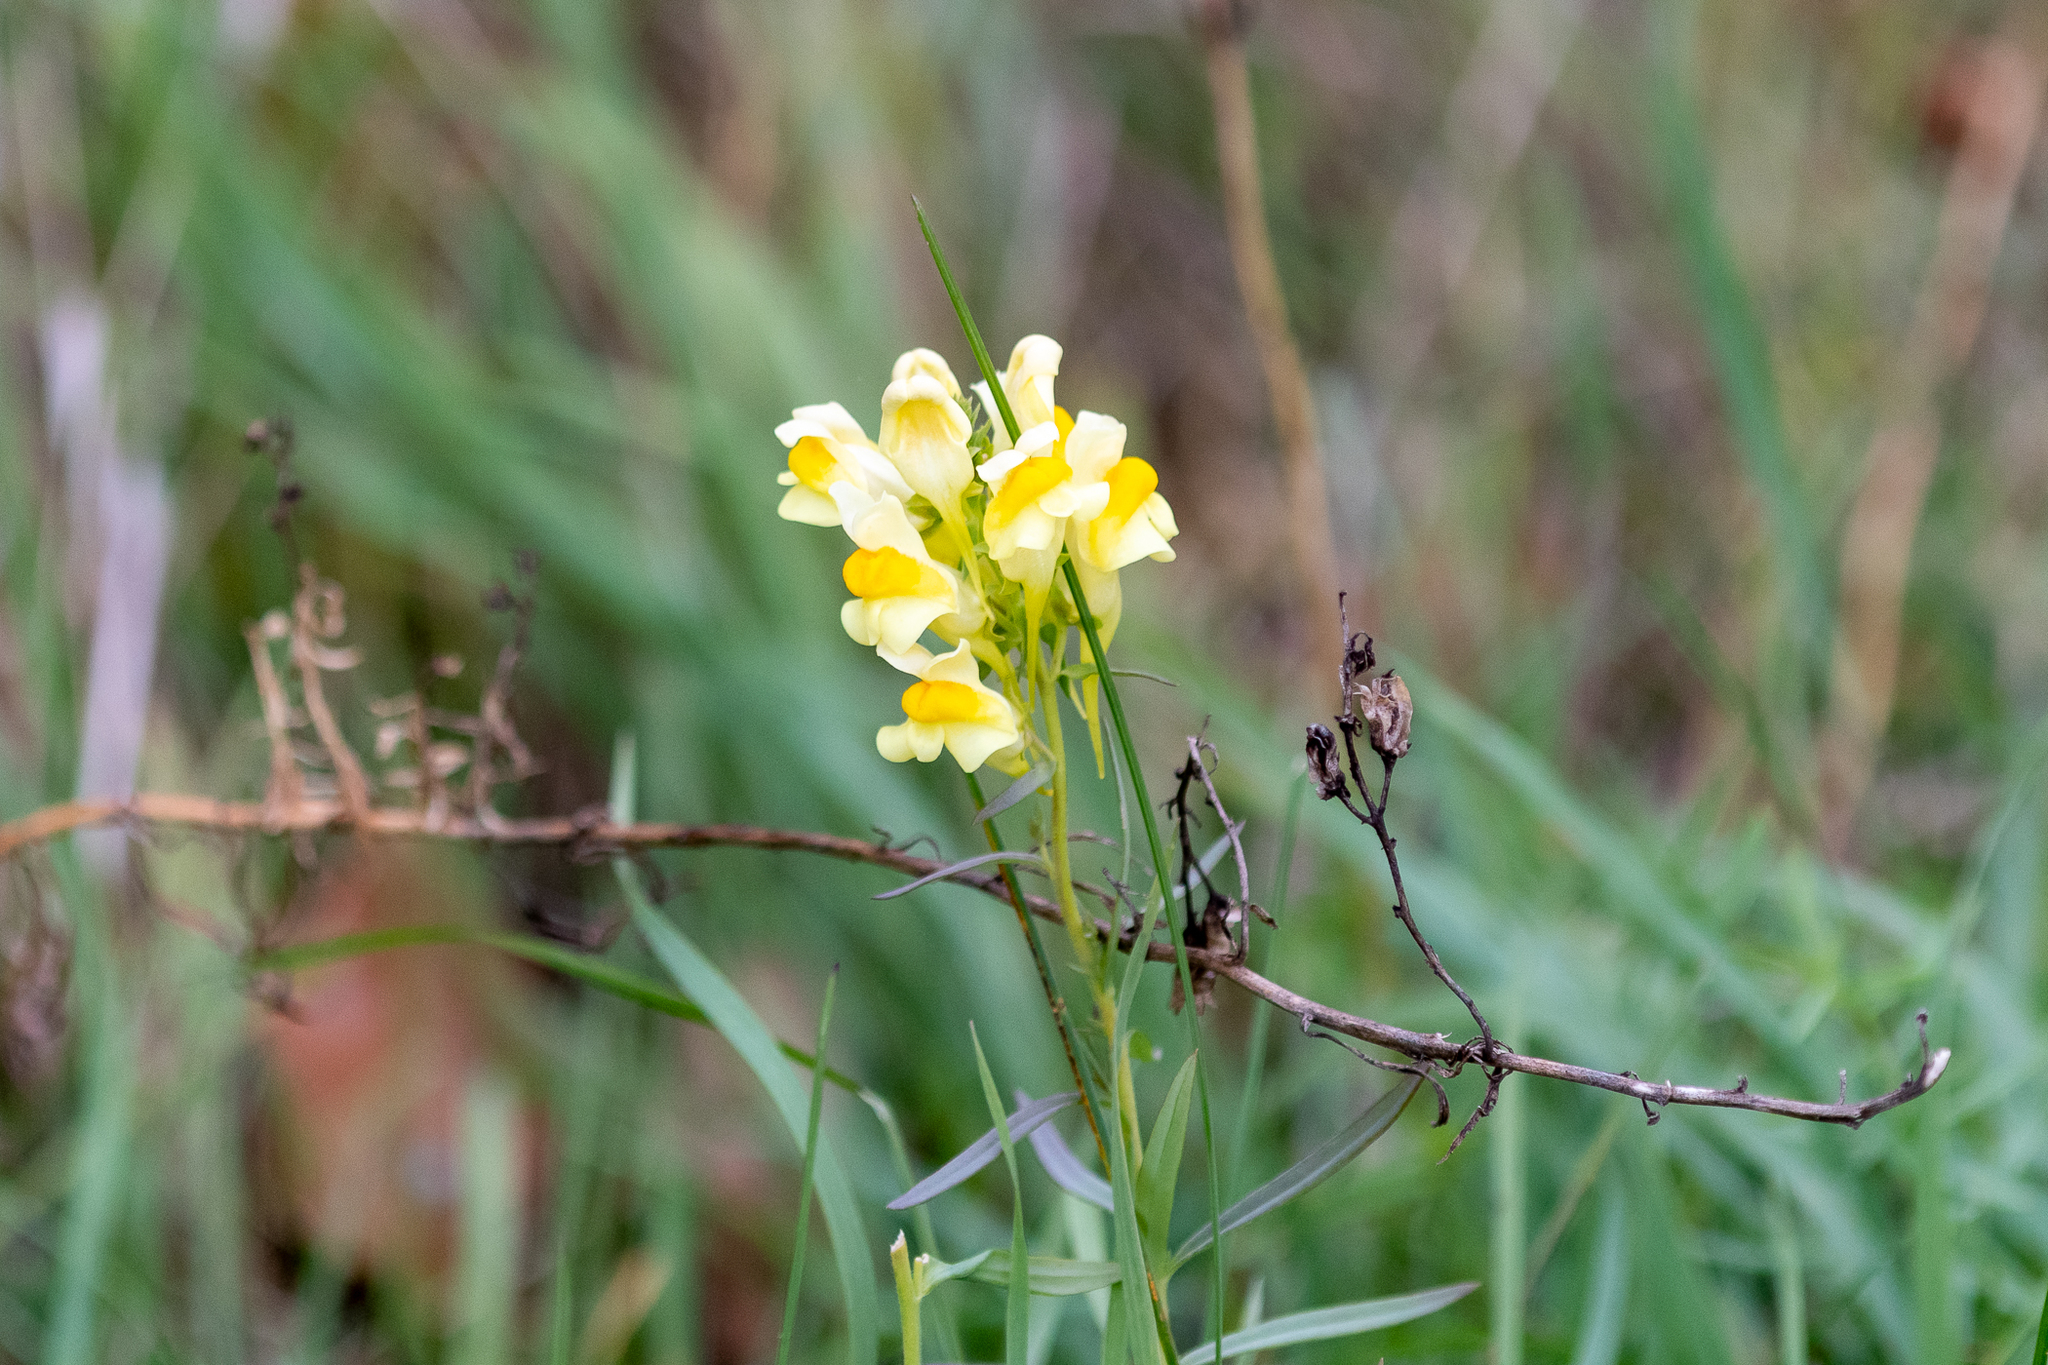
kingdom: Plantae
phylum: Tracheophyta
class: Magnoliopsida
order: Lamiales
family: Plantaginaceae
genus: Linaria
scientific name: Linaria vulgaris
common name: Butter and eggs
